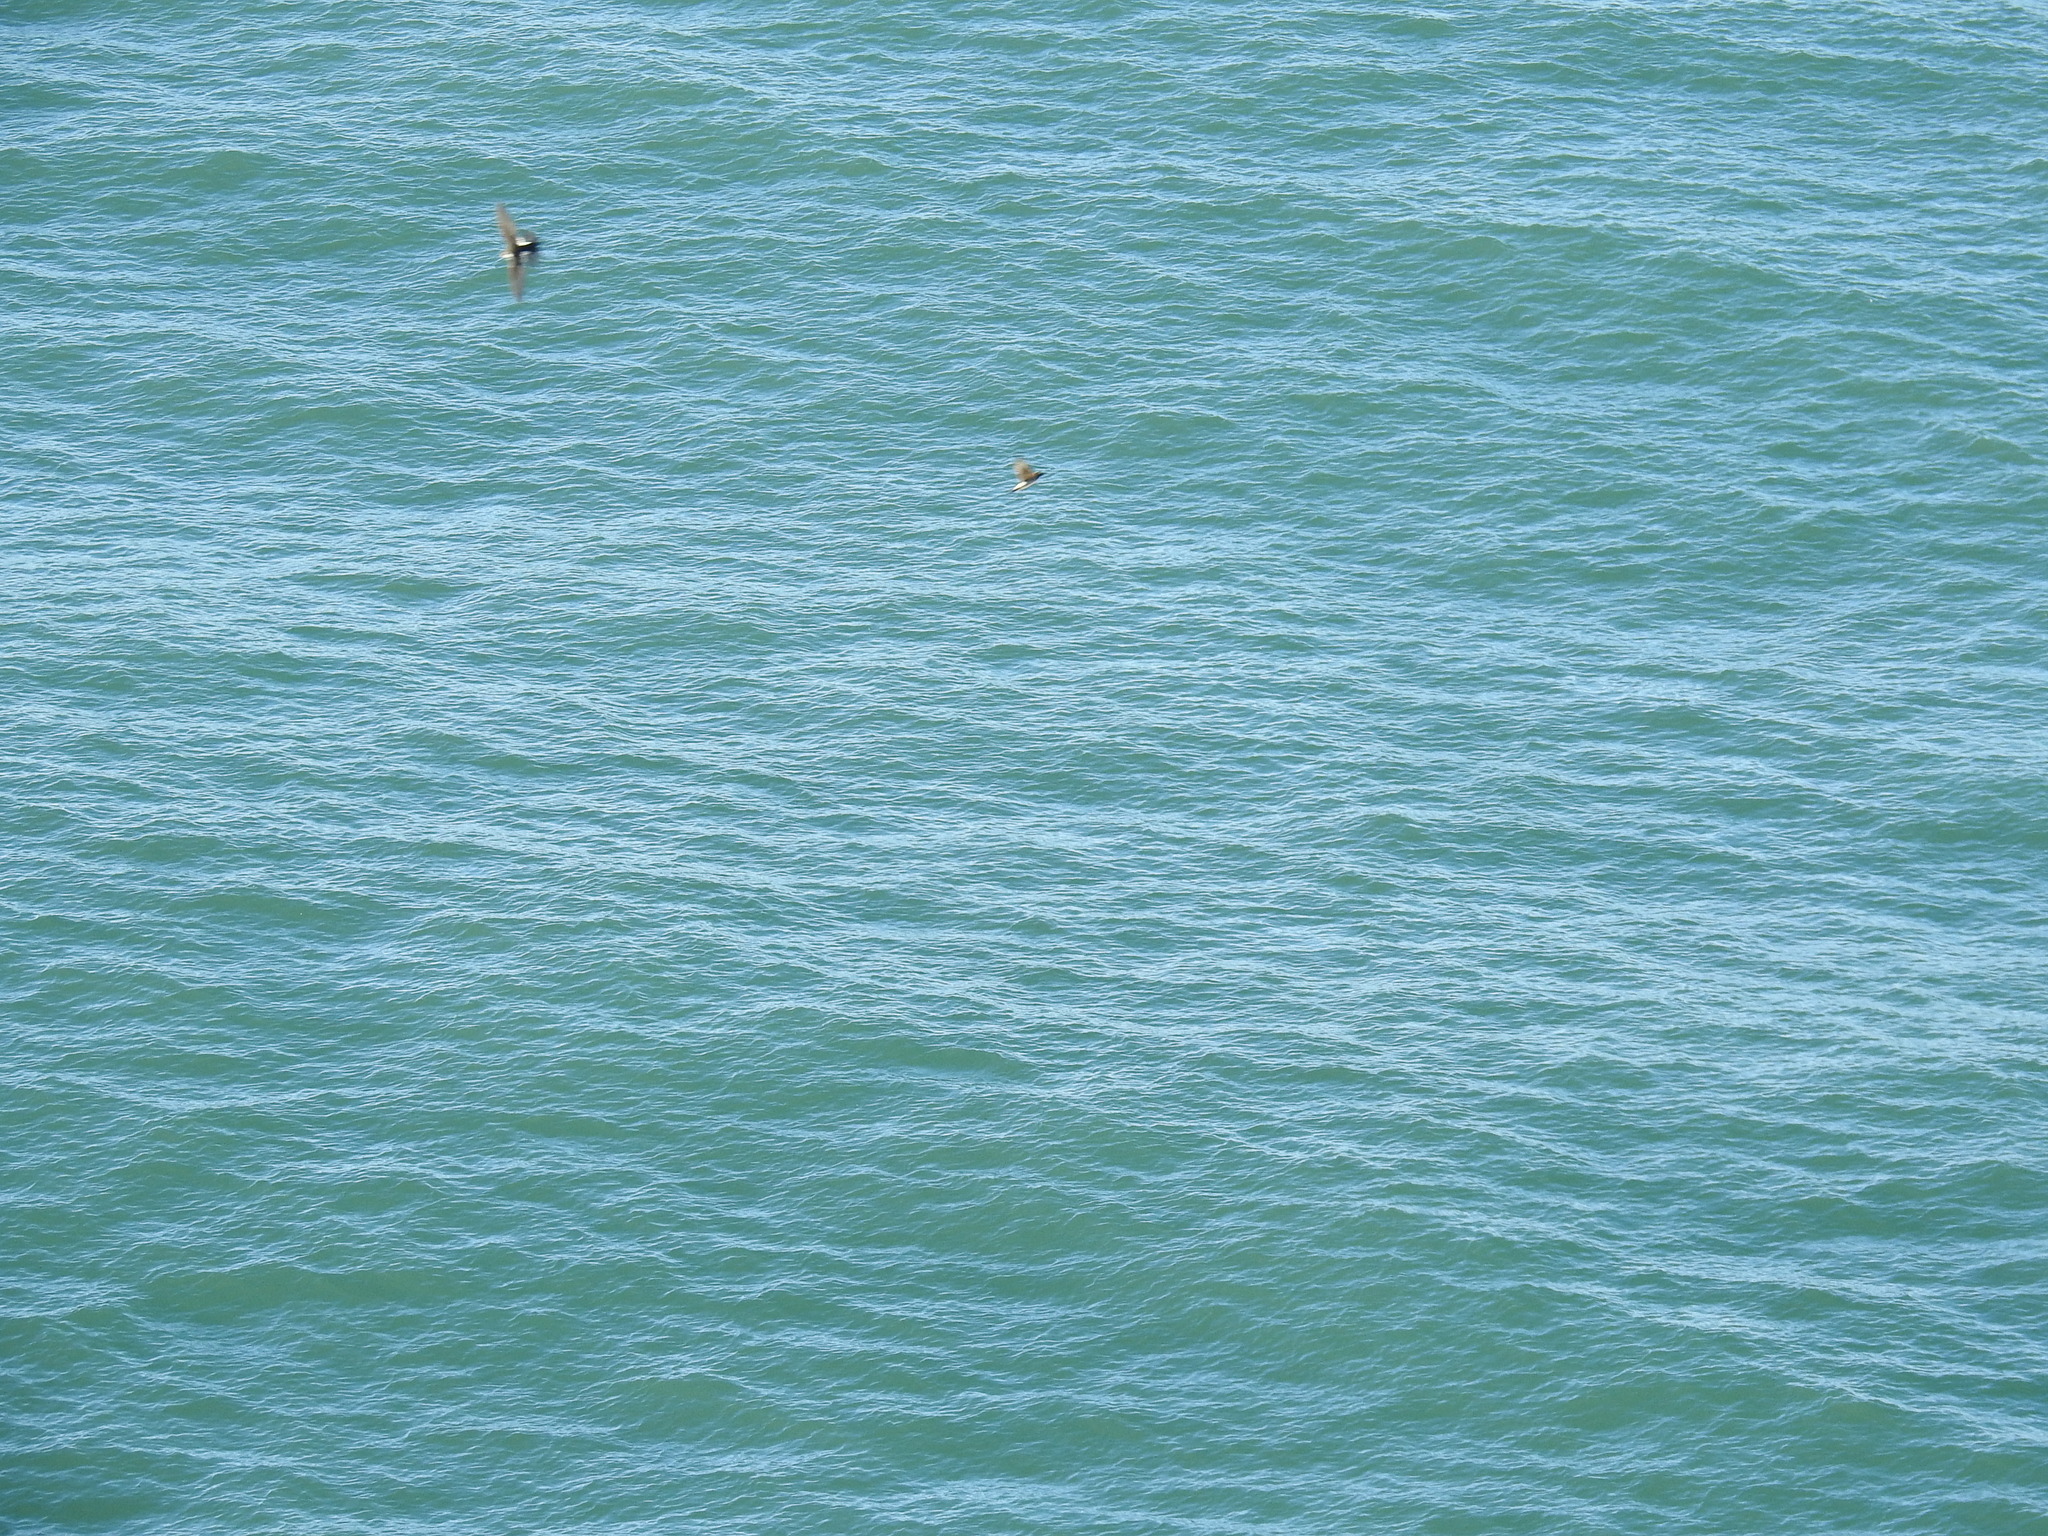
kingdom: Animalia
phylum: Chordata
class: Aves
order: Apodiformes
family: Apodidae
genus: Aeronautes
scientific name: Aeronautes saxatalis
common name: White-throated swift
